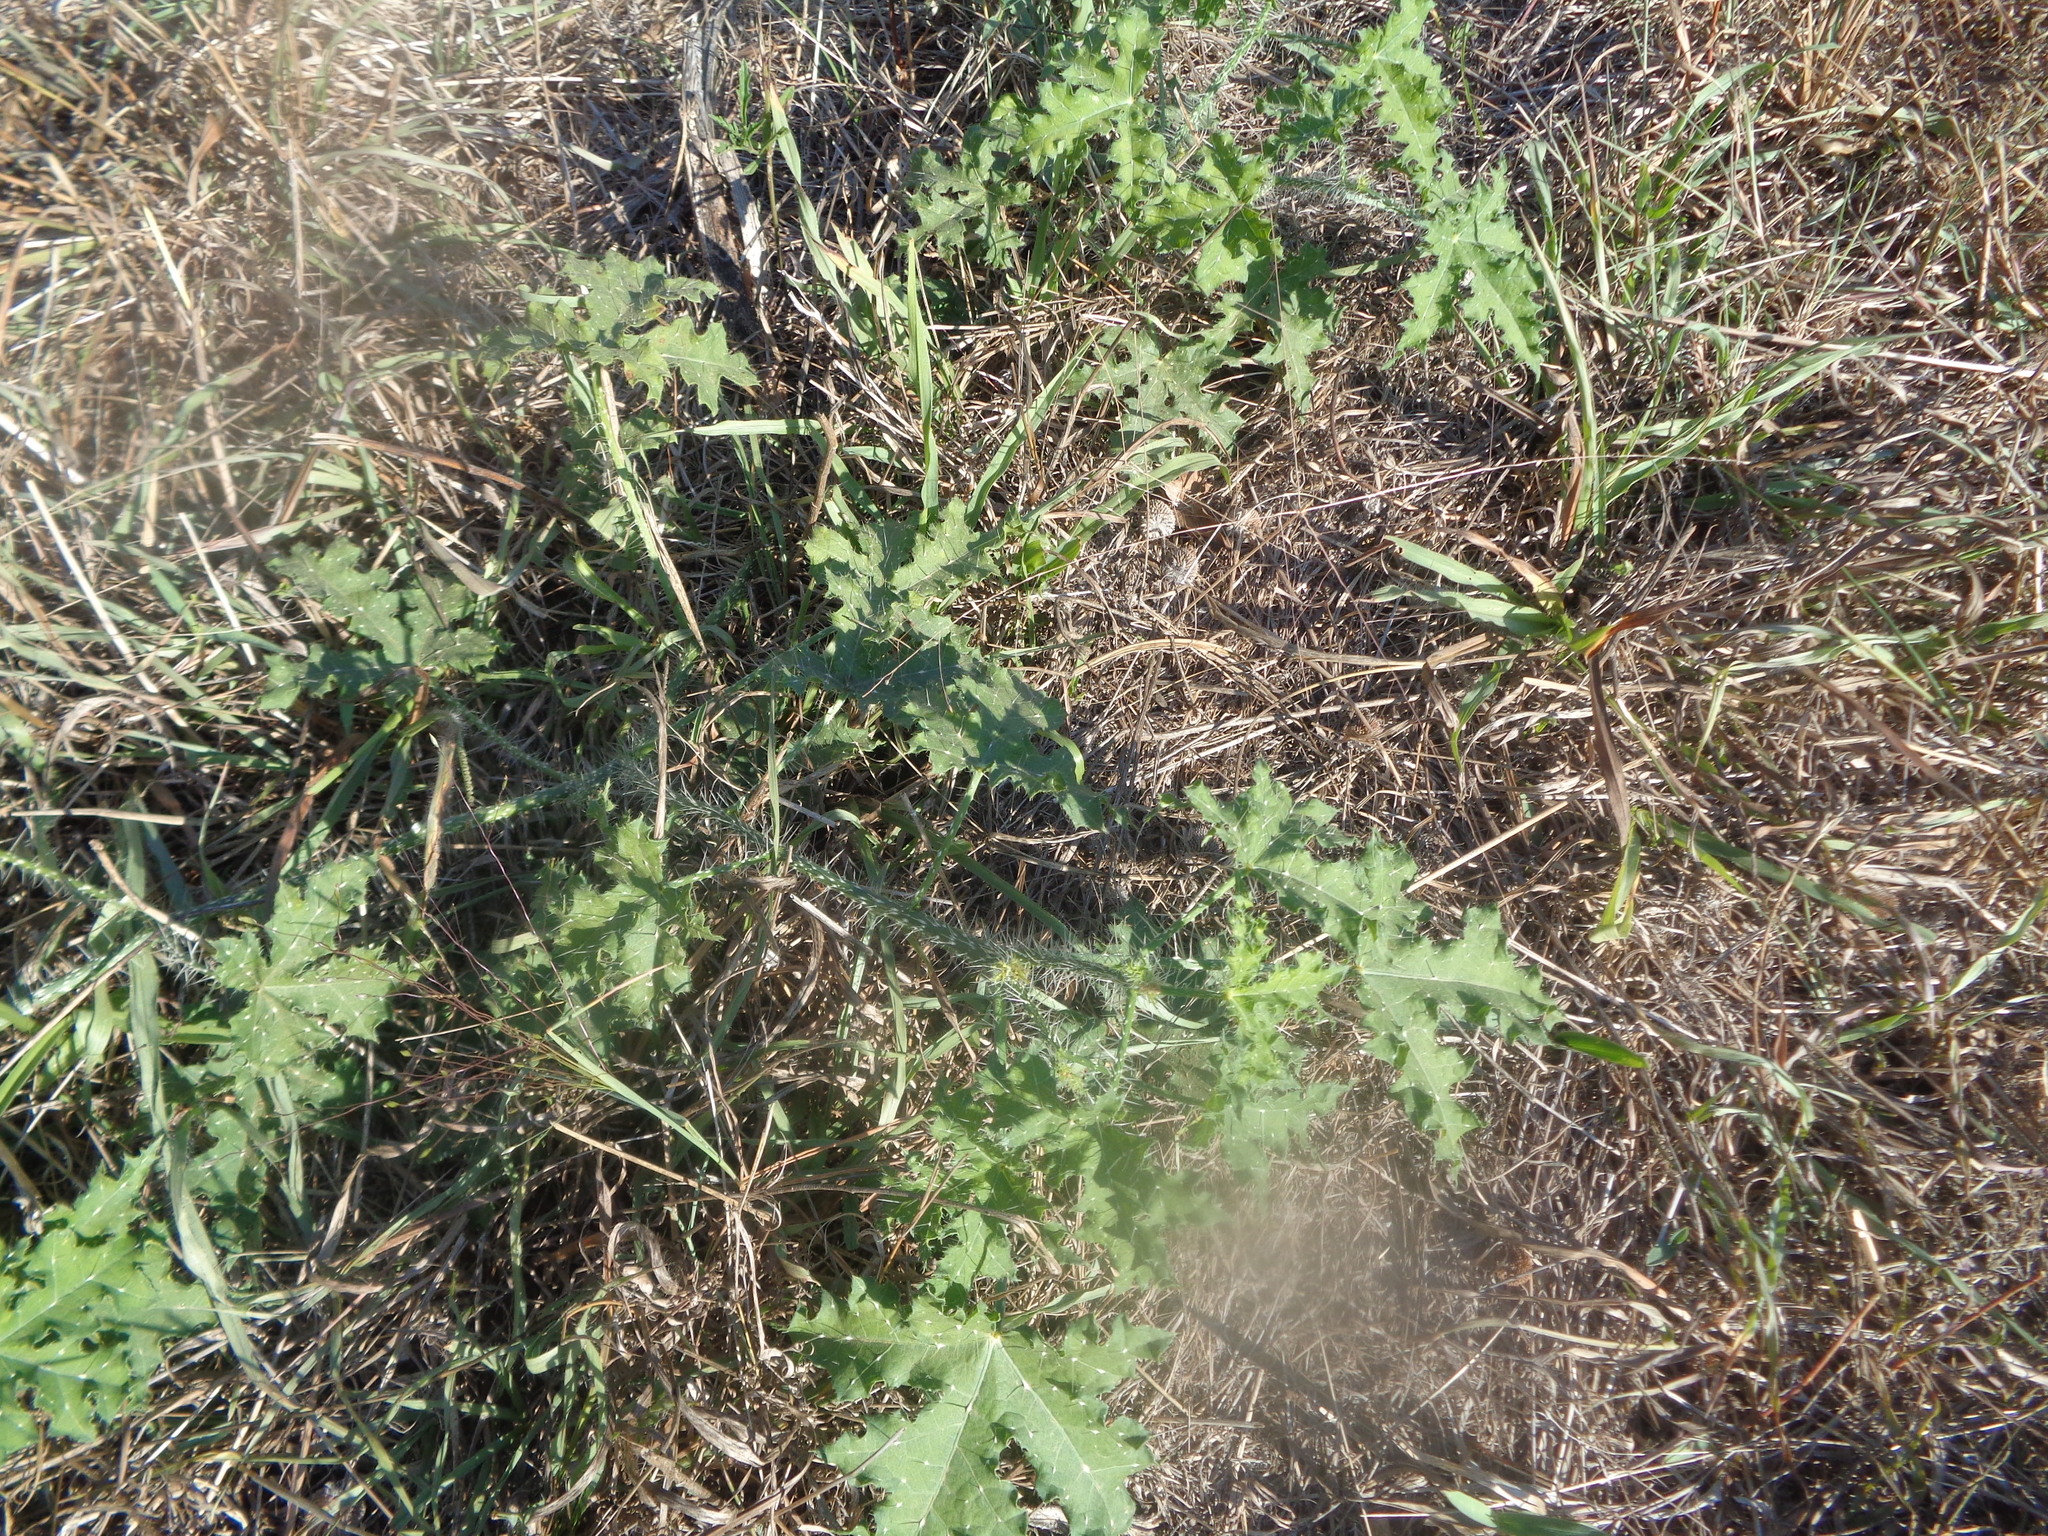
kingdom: Plantae
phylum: Tracheophyta
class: Magnoliopsida
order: Asterales
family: Asteraceae
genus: Ambrosia
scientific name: Ambrosia psilostachya
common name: Perennial ragweed
